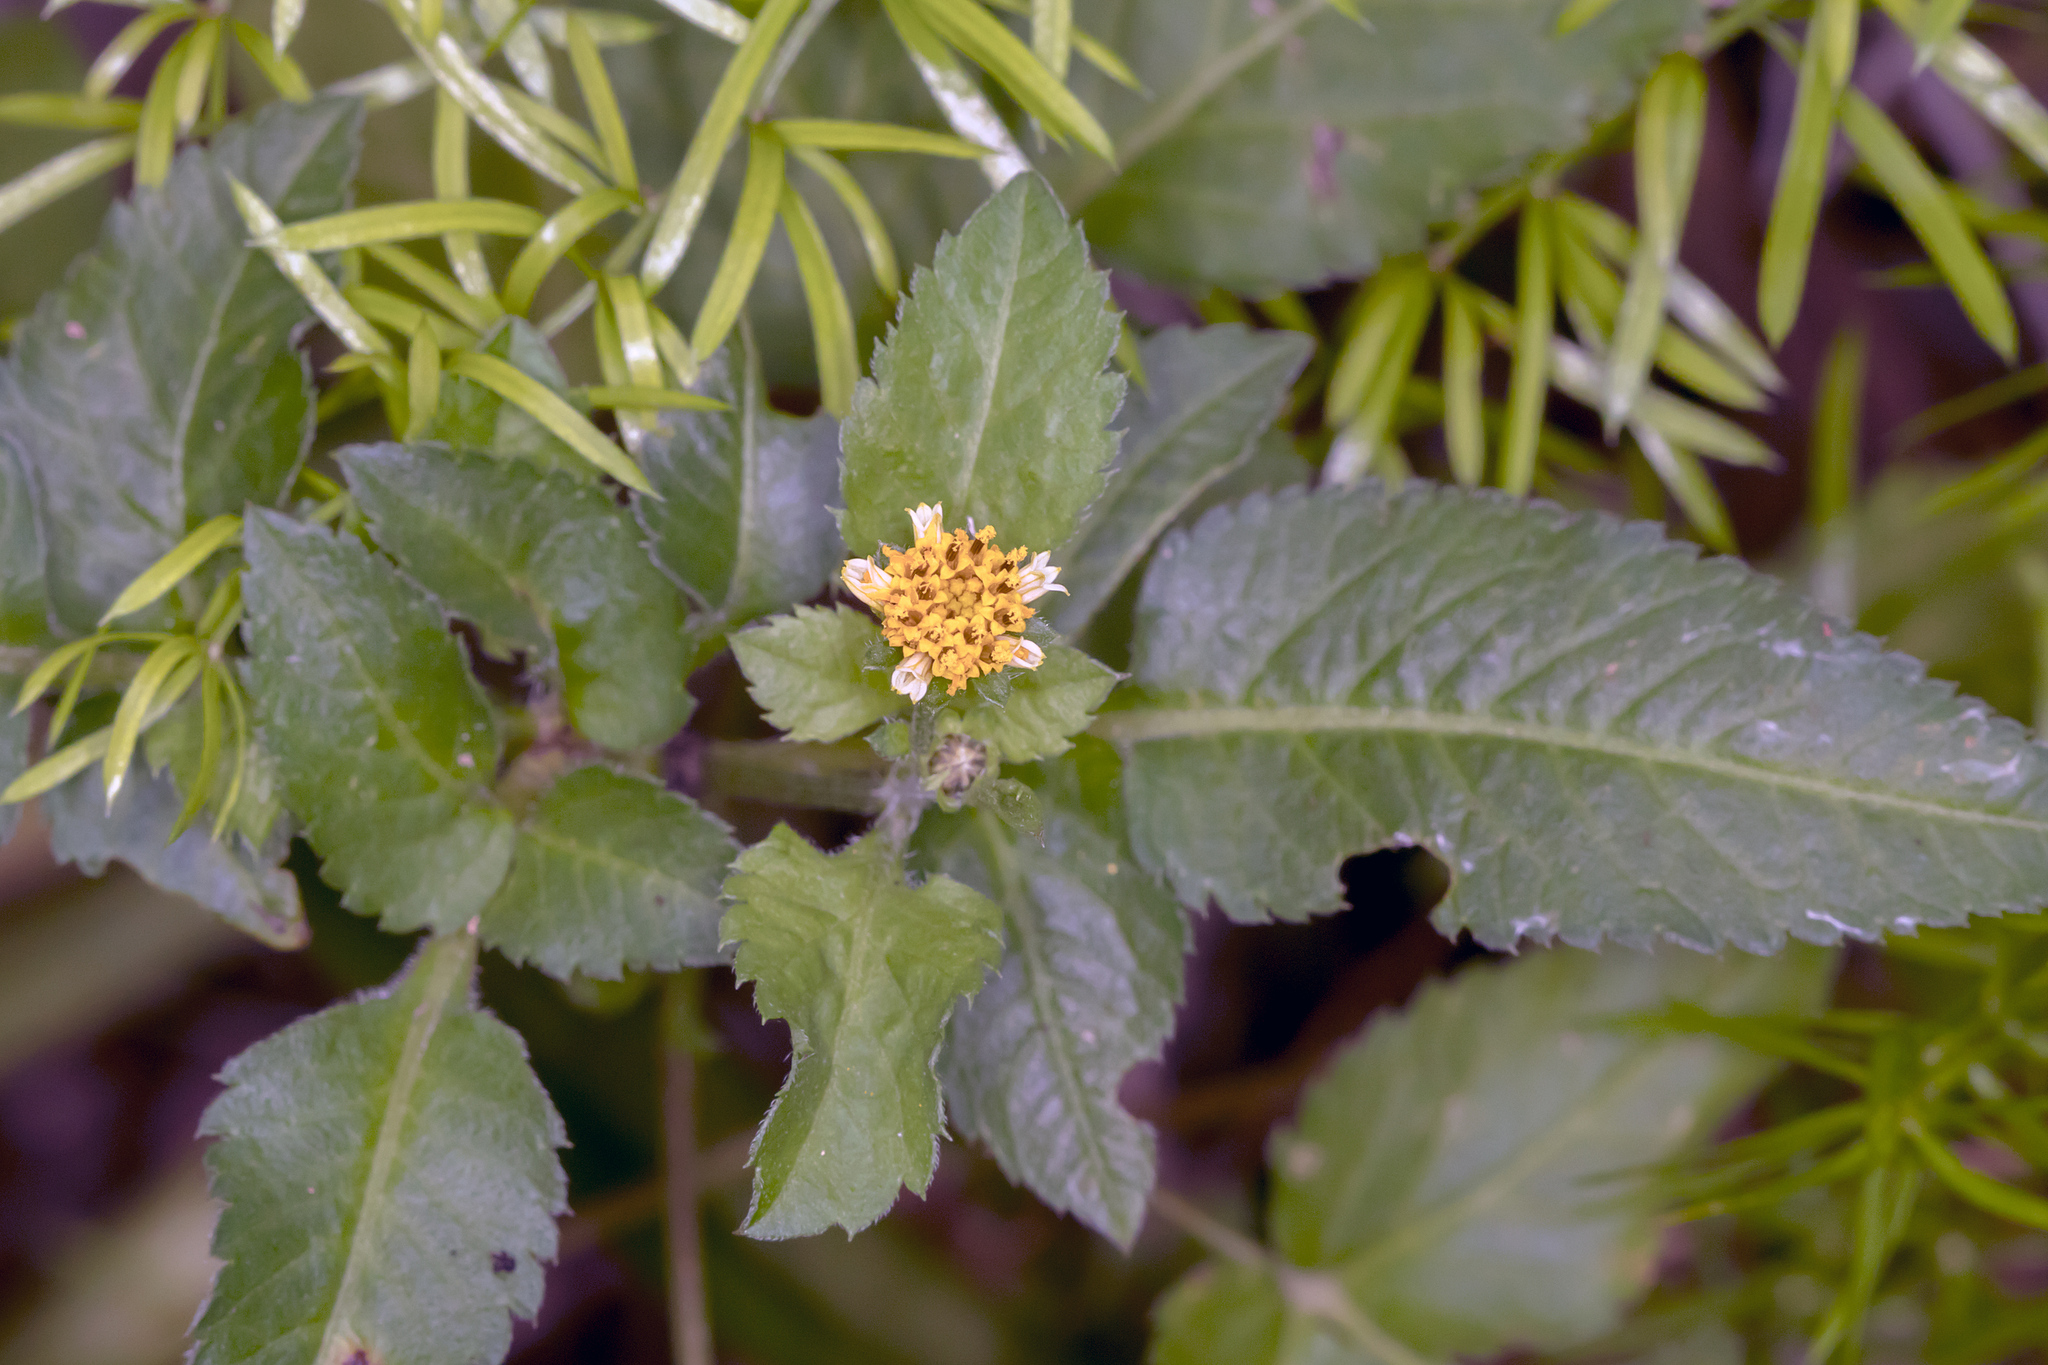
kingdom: Plantae
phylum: Tracheophyta
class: Magnoliopsida
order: Asterales
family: Asteraceae
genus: Bidens
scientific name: Bidens pilosa
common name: Black-jack
